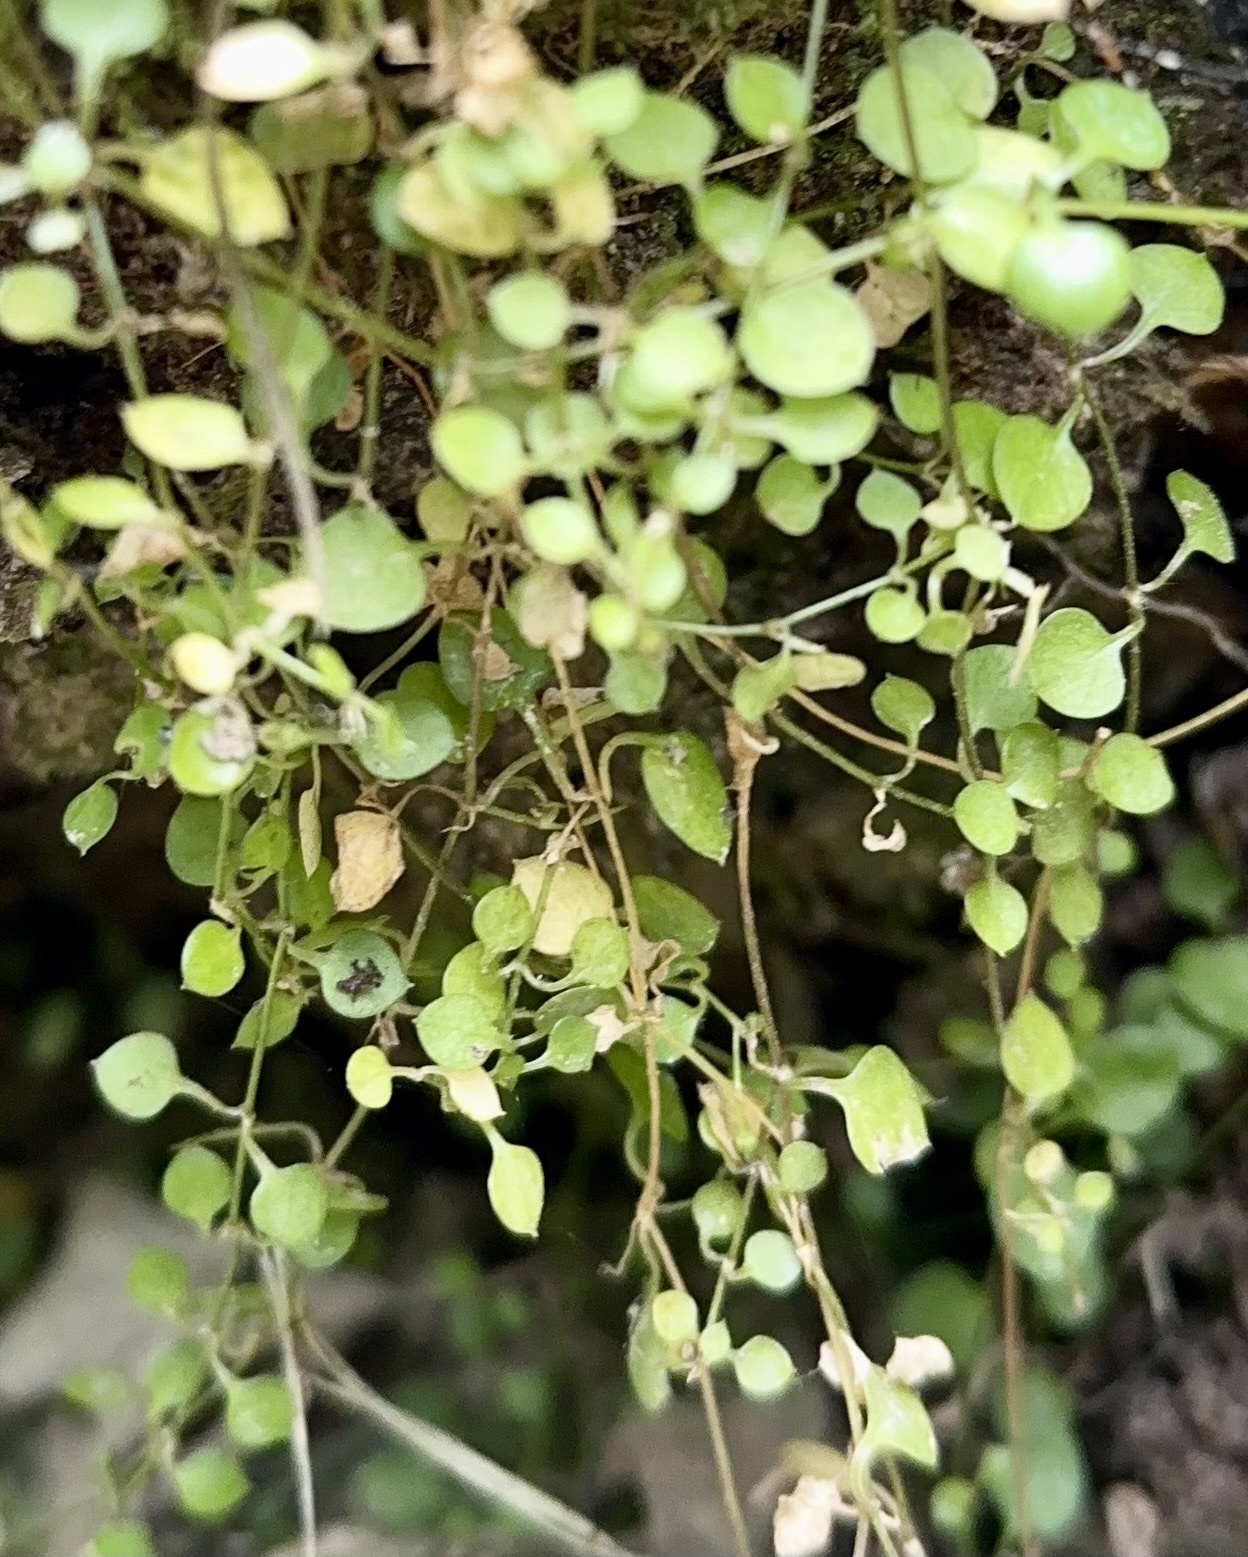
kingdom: Plantae
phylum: Tracheophyta
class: Magnoliopsida
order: Caryophyllales
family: Caryophyllaceae
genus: Stellaria
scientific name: Stellaria parviflora
